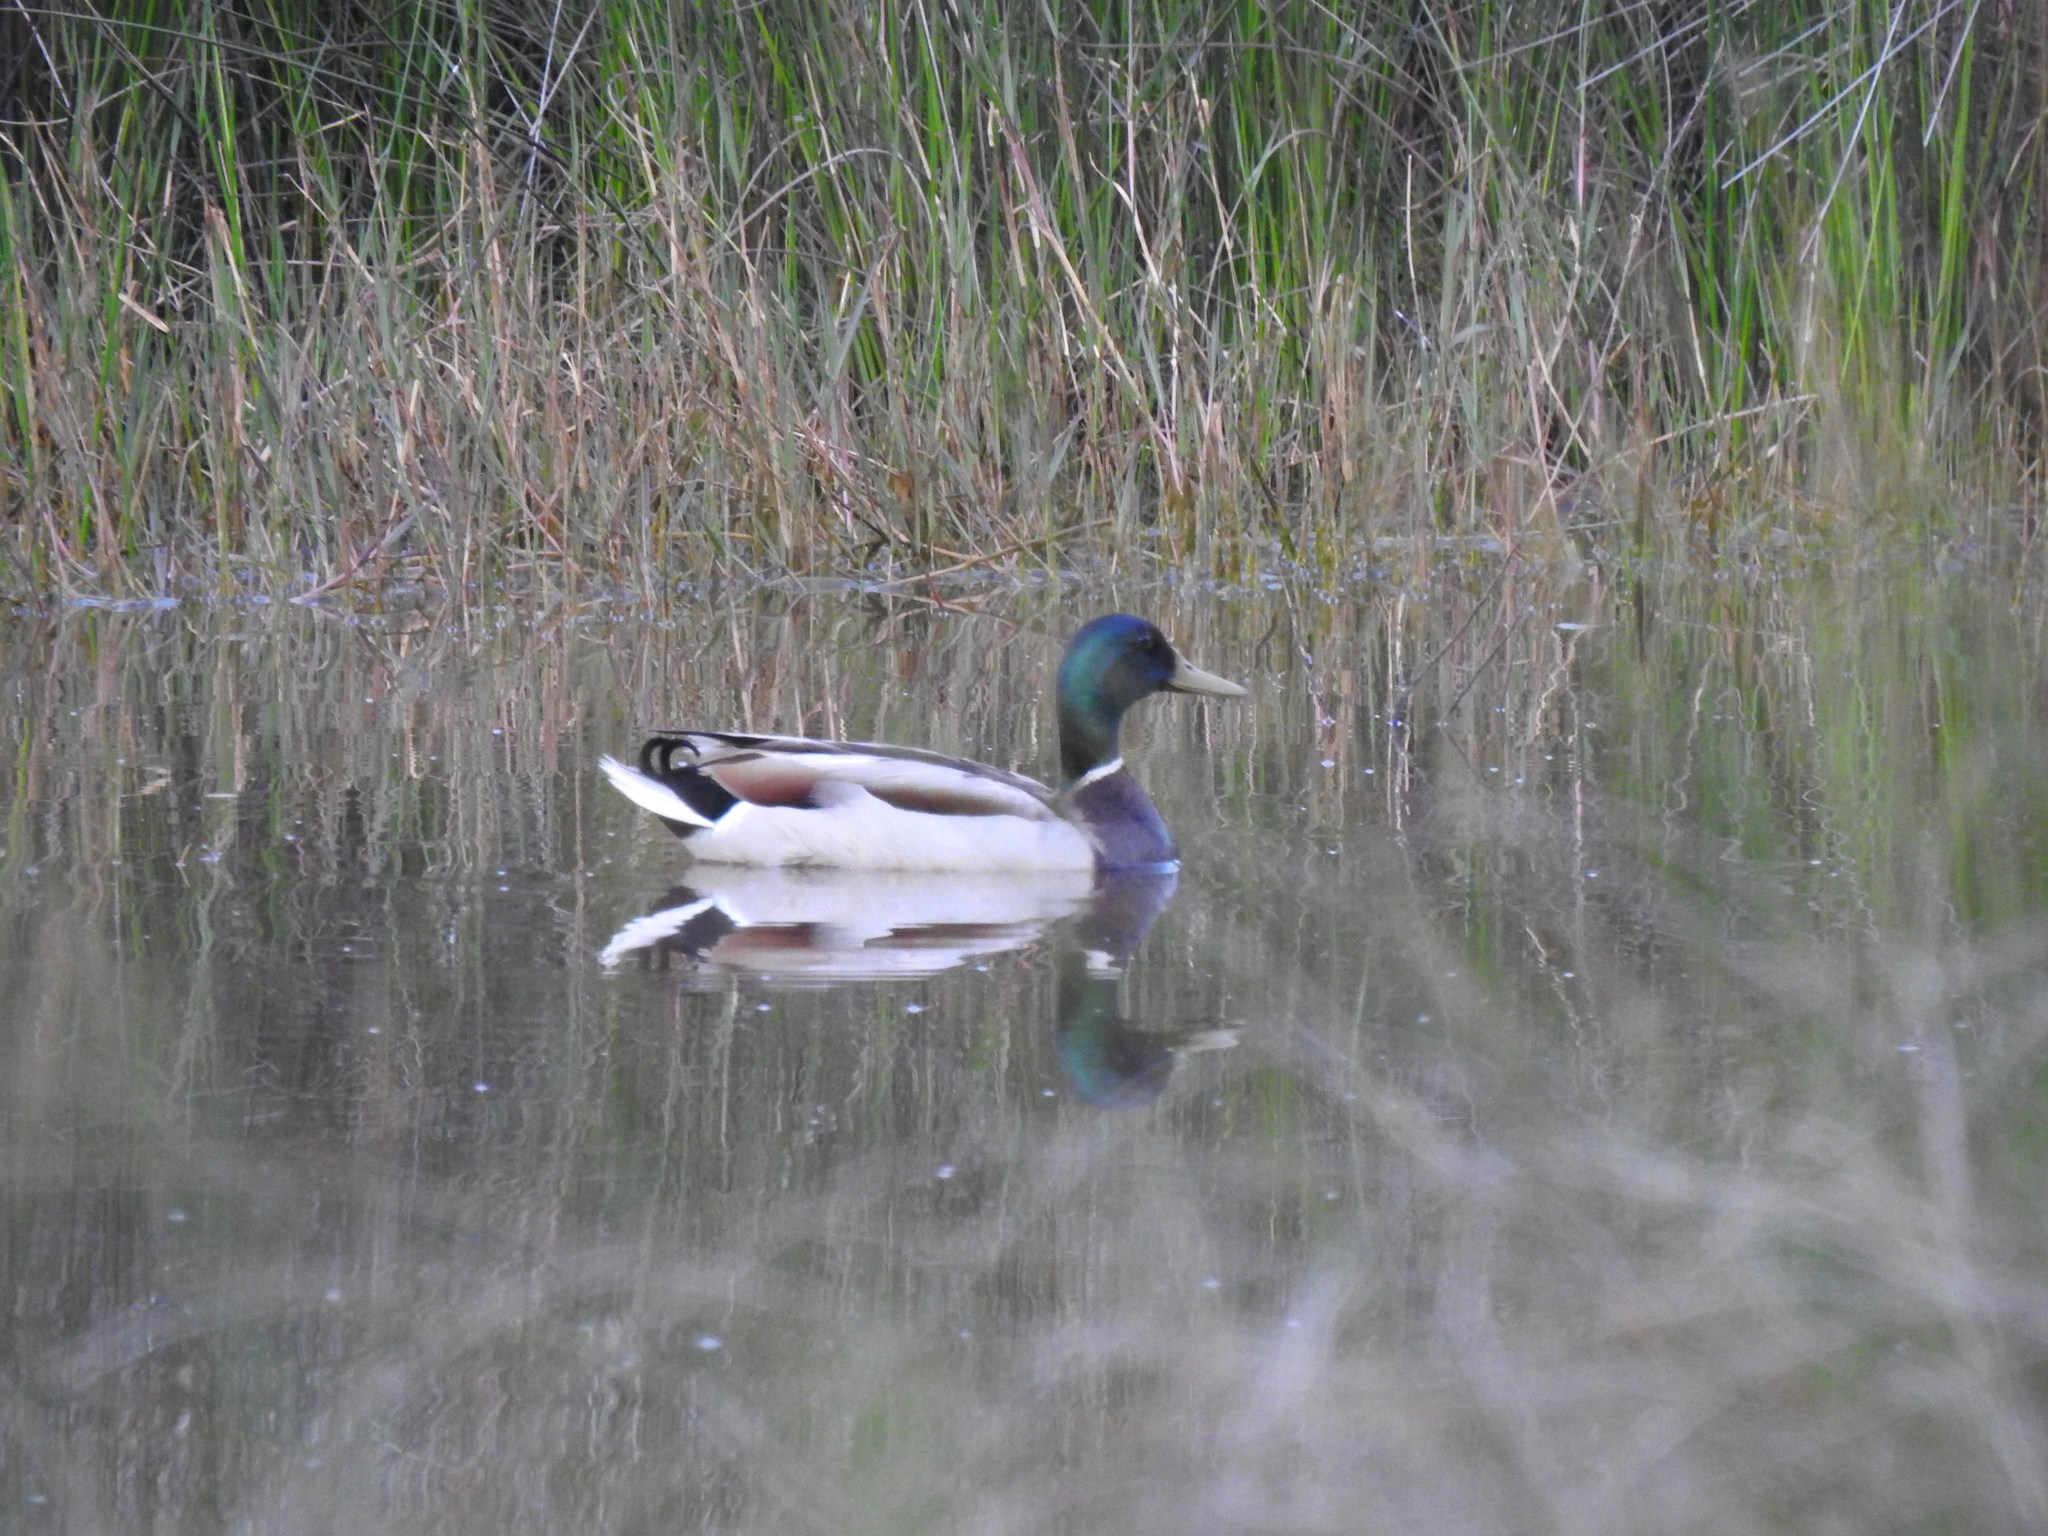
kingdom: Animalia
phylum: Chordata
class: Aves
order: Anseriformes
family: Anatidae
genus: Anas
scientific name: Anas platyrhynchos
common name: Mallard
